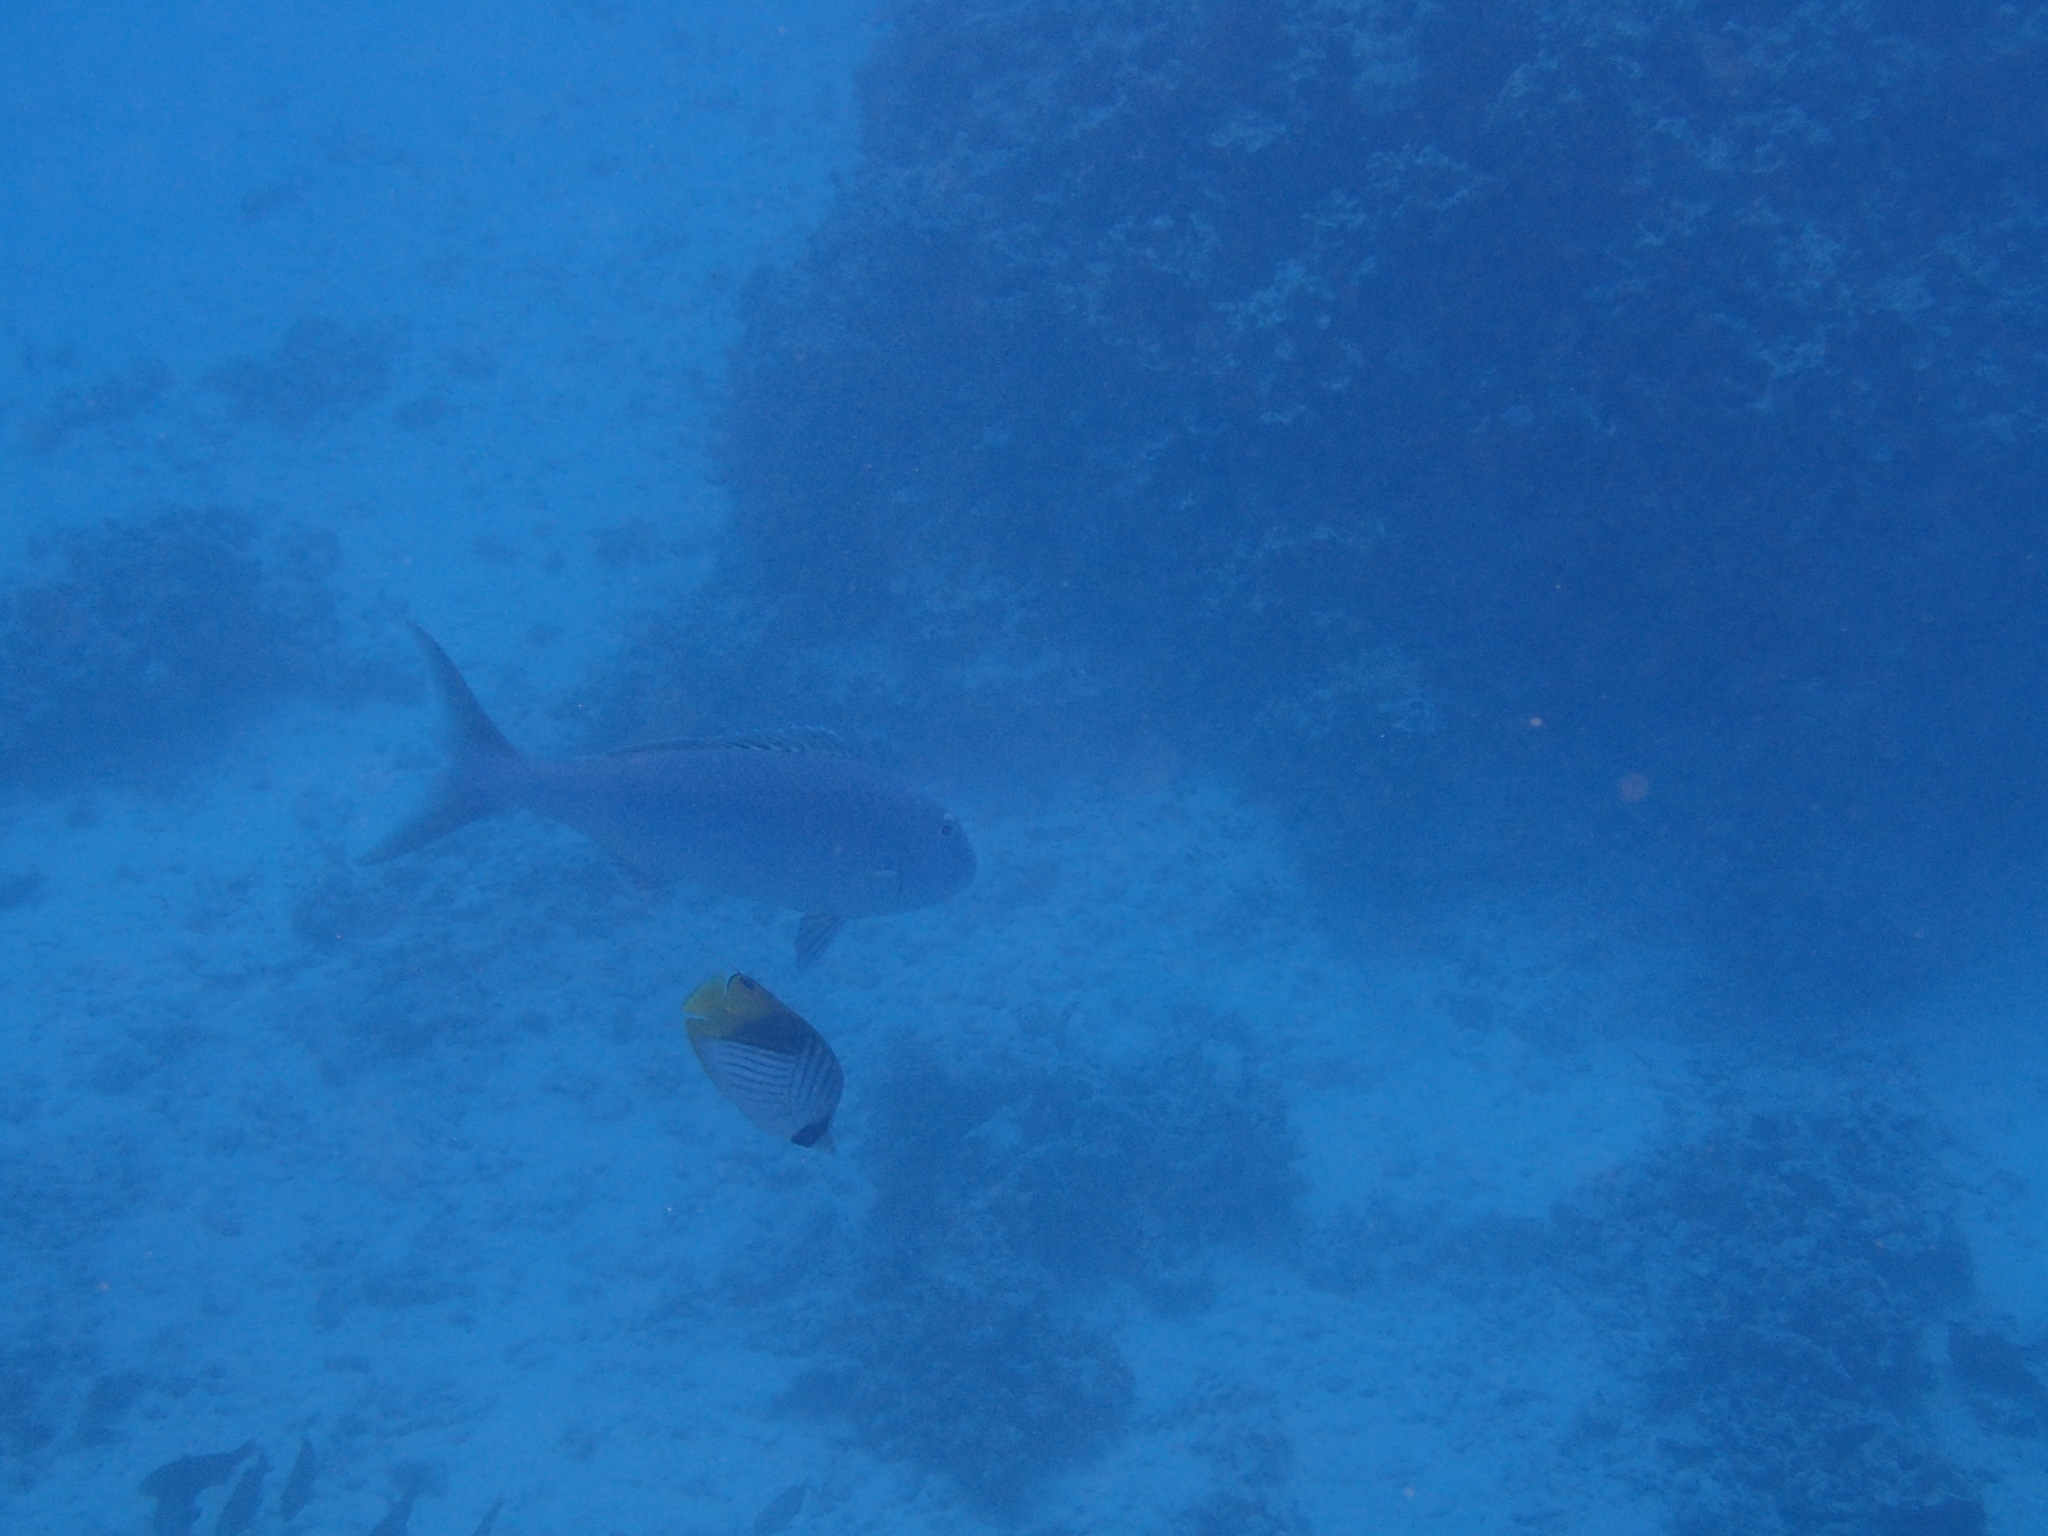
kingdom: Animalia
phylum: Chordata
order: Perciformes
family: Lutjanidae
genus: Aprion
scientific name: Aprion virescens
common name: Green jobfish
